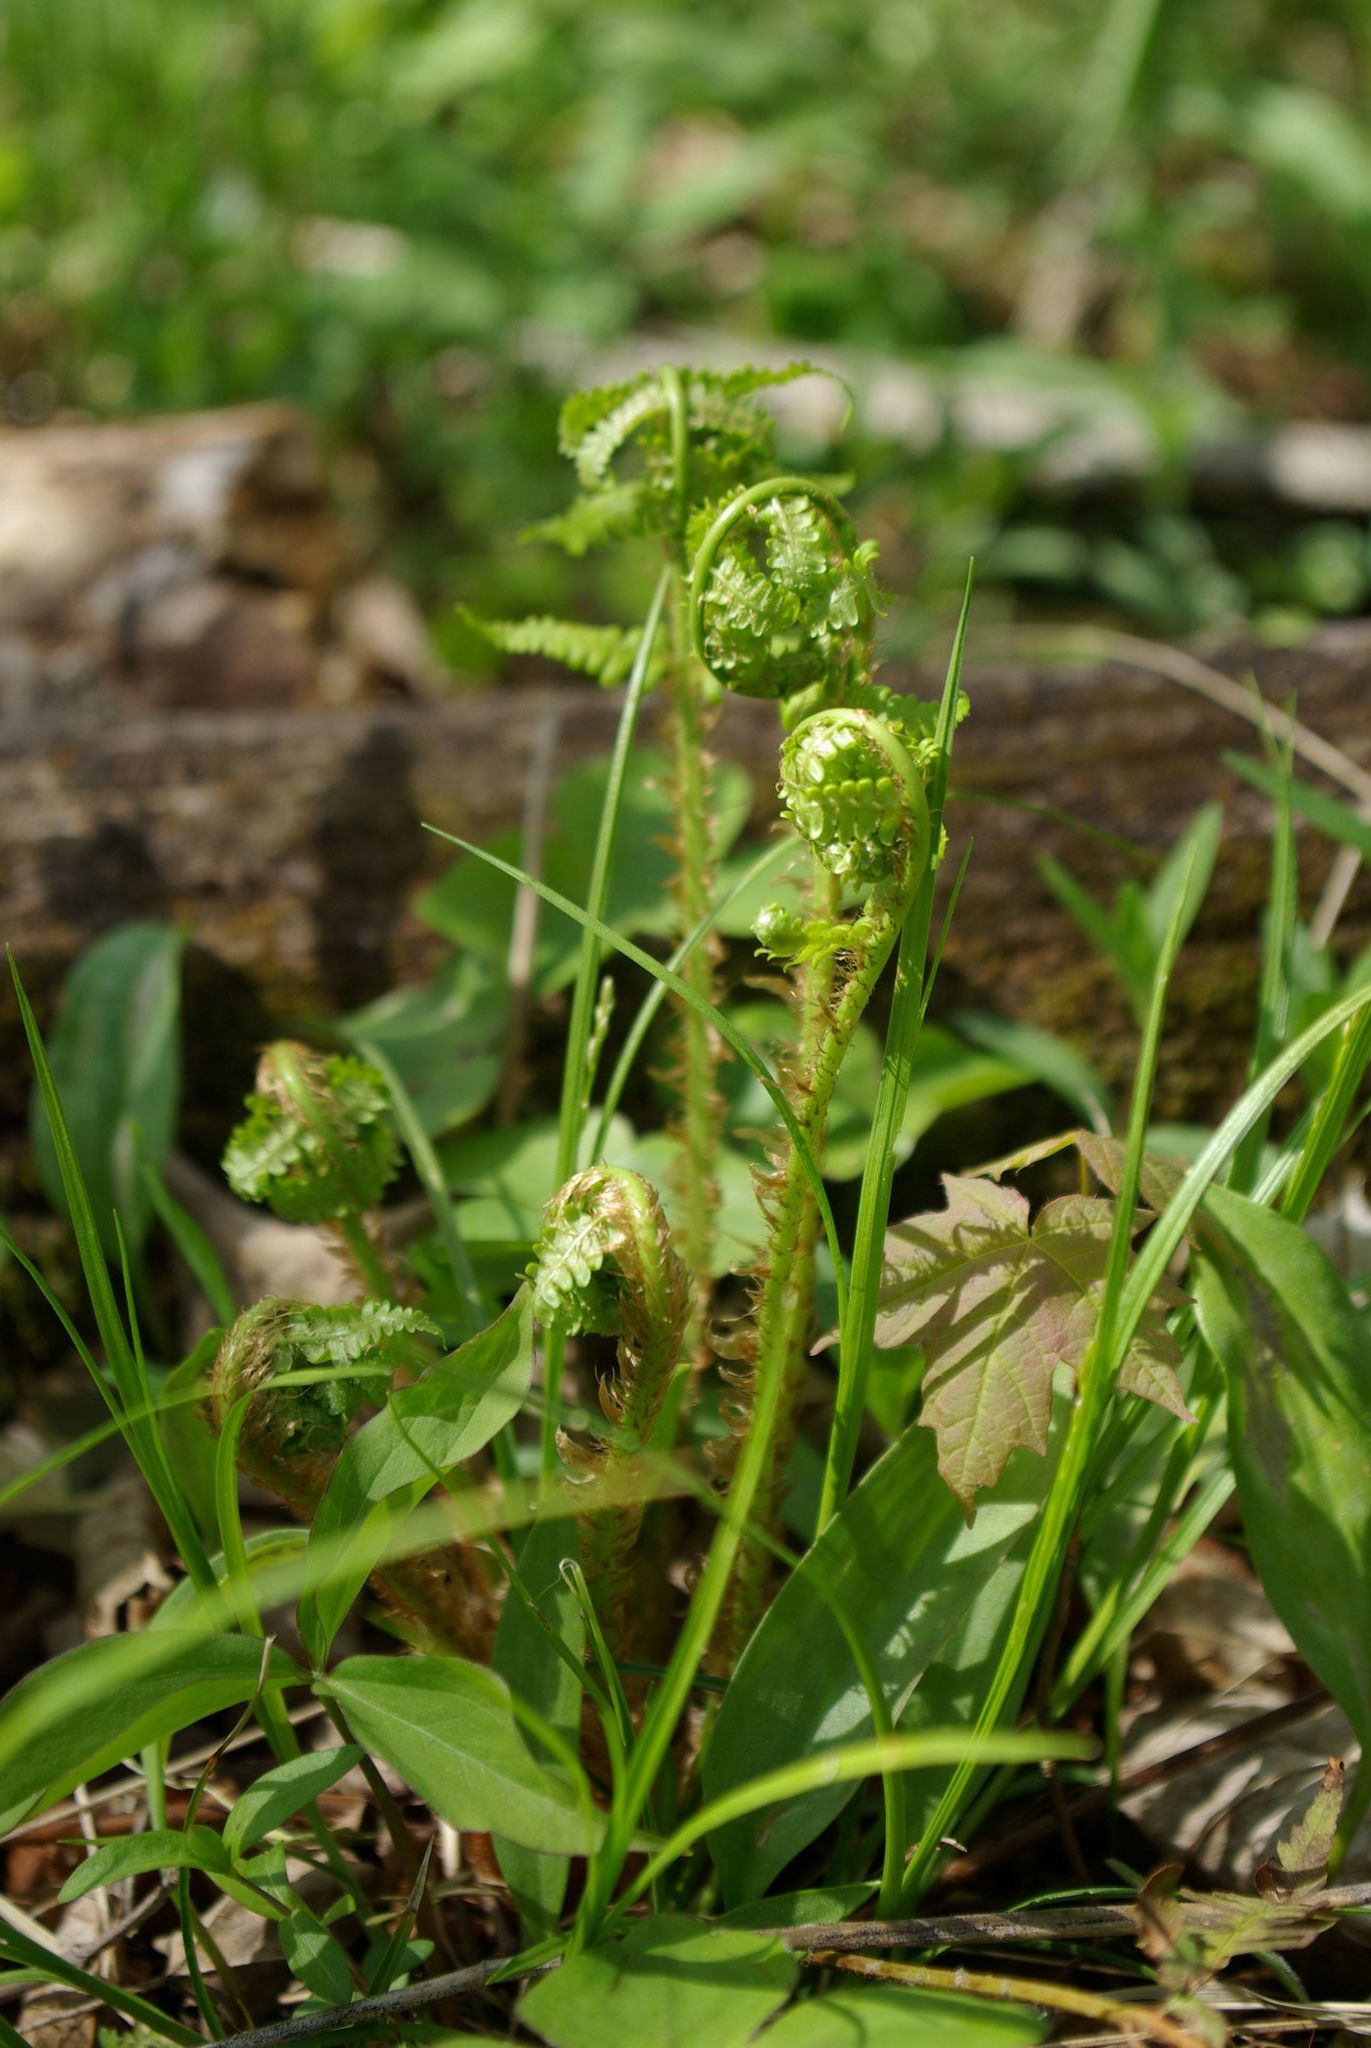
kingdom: Plantae
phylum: Tracheophyta
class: Polypodiopsida
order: Polypodiales
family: Dryopteridaceae
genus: Dryopteris
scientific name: Dryopteris marginalis
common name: Marginal wood fern
